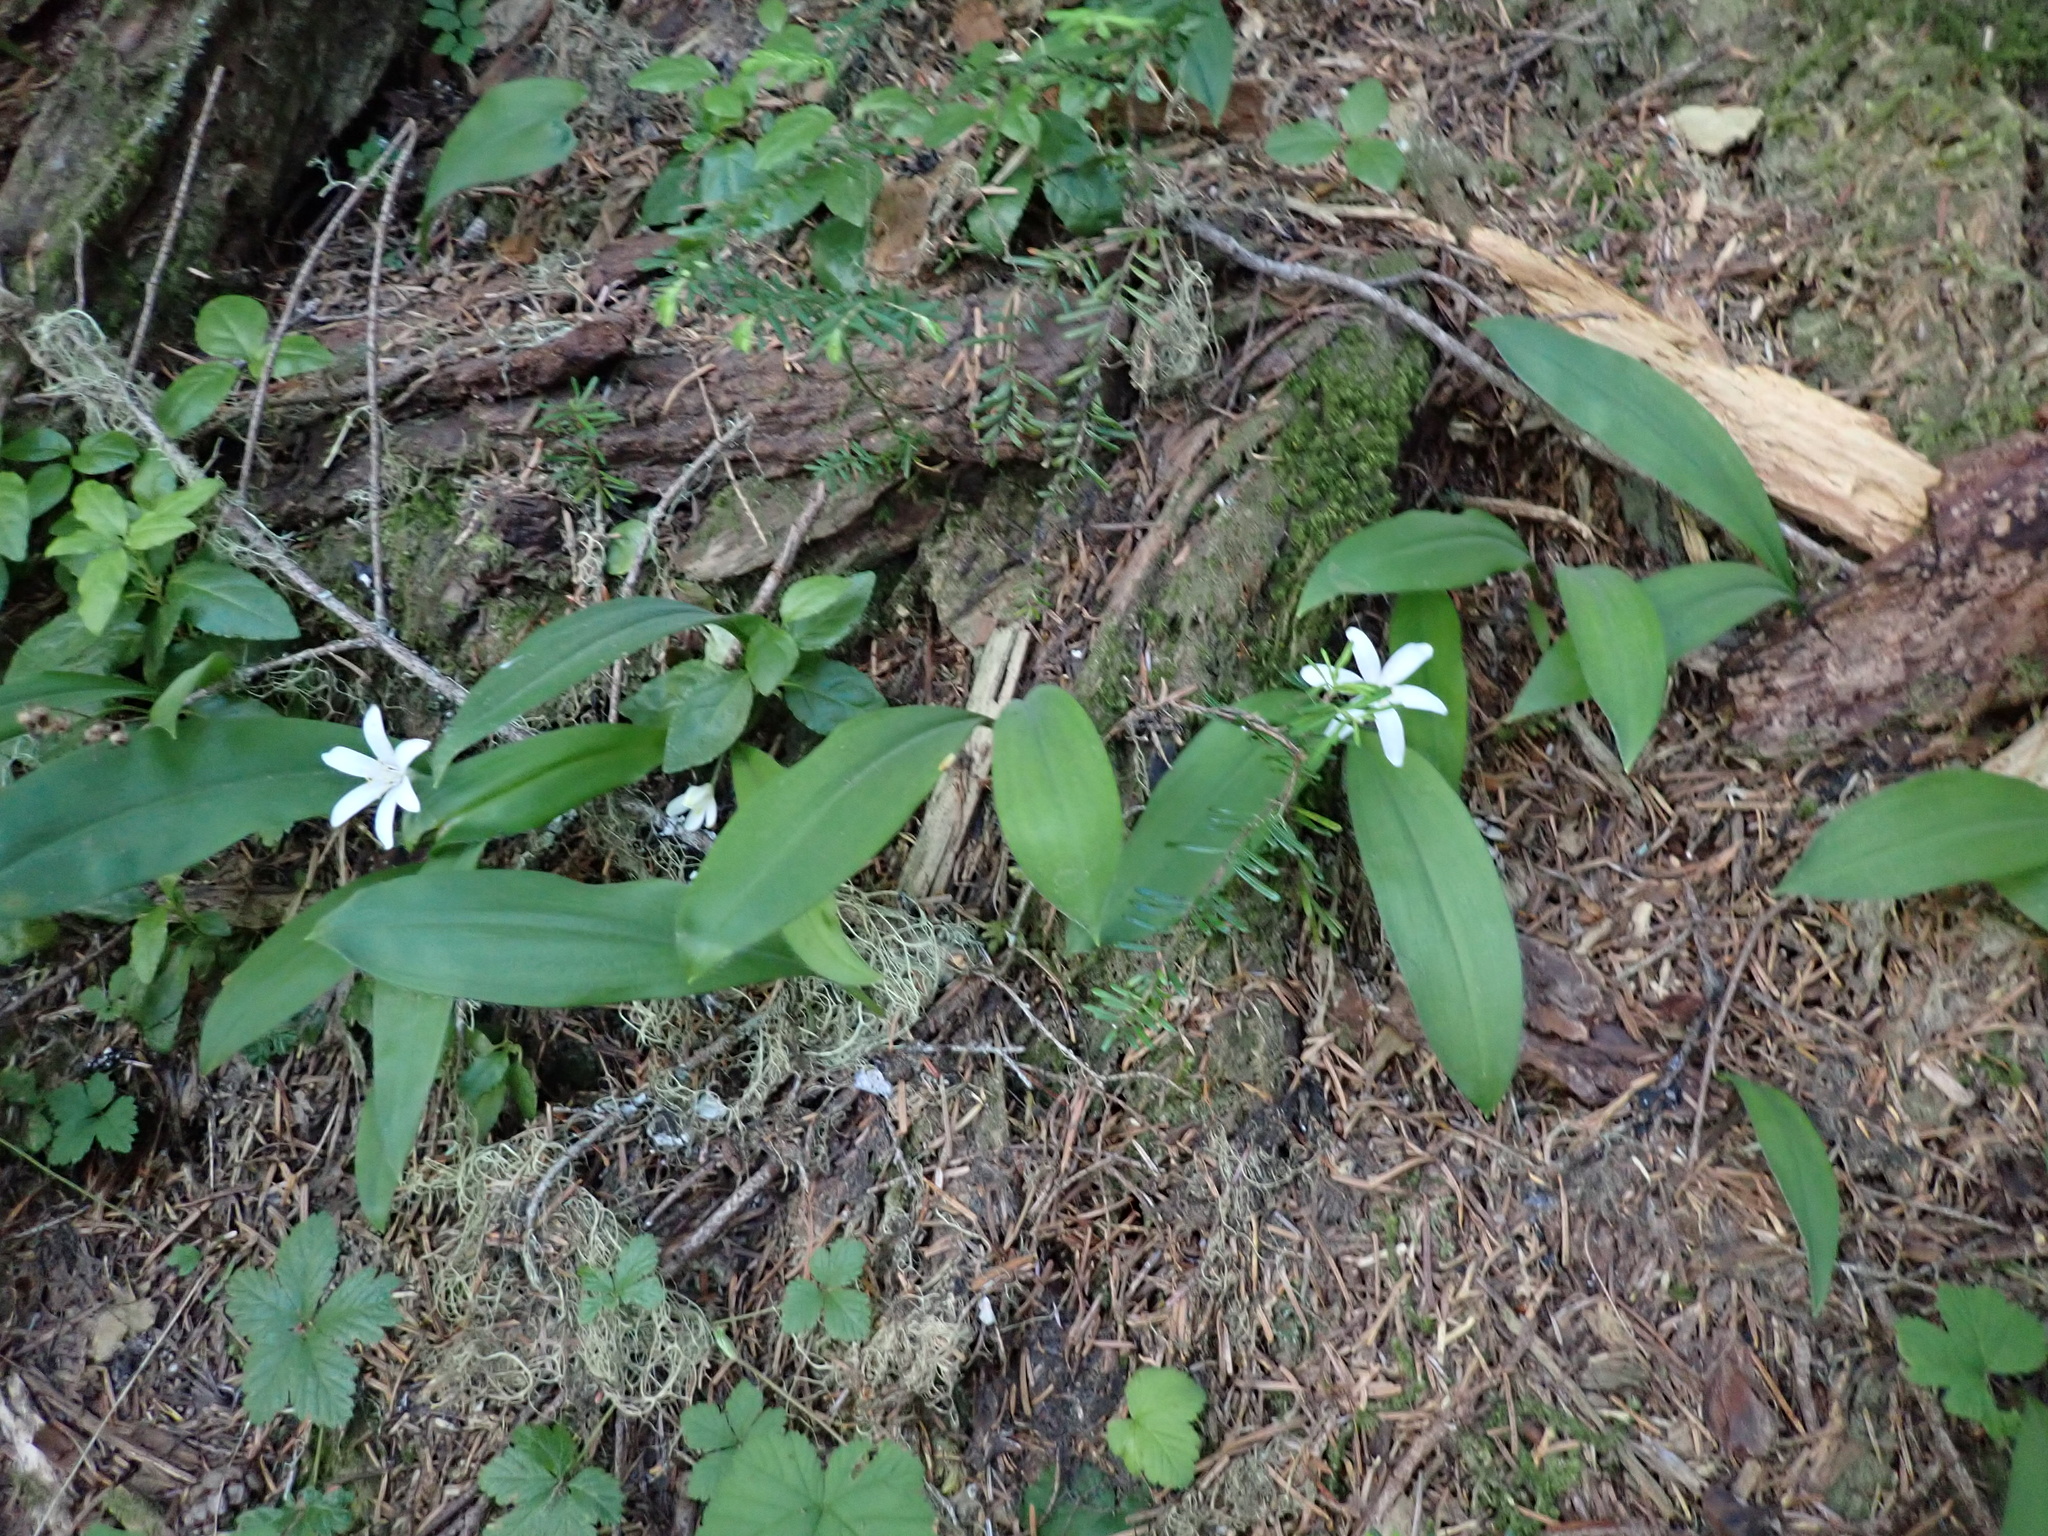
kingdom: Plantae
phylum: Tracheophyta
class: Liliopsida
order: Liliales
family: Liliaceae
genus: Clintonia
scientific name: Clintonia uniflora
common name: Queen's cup
